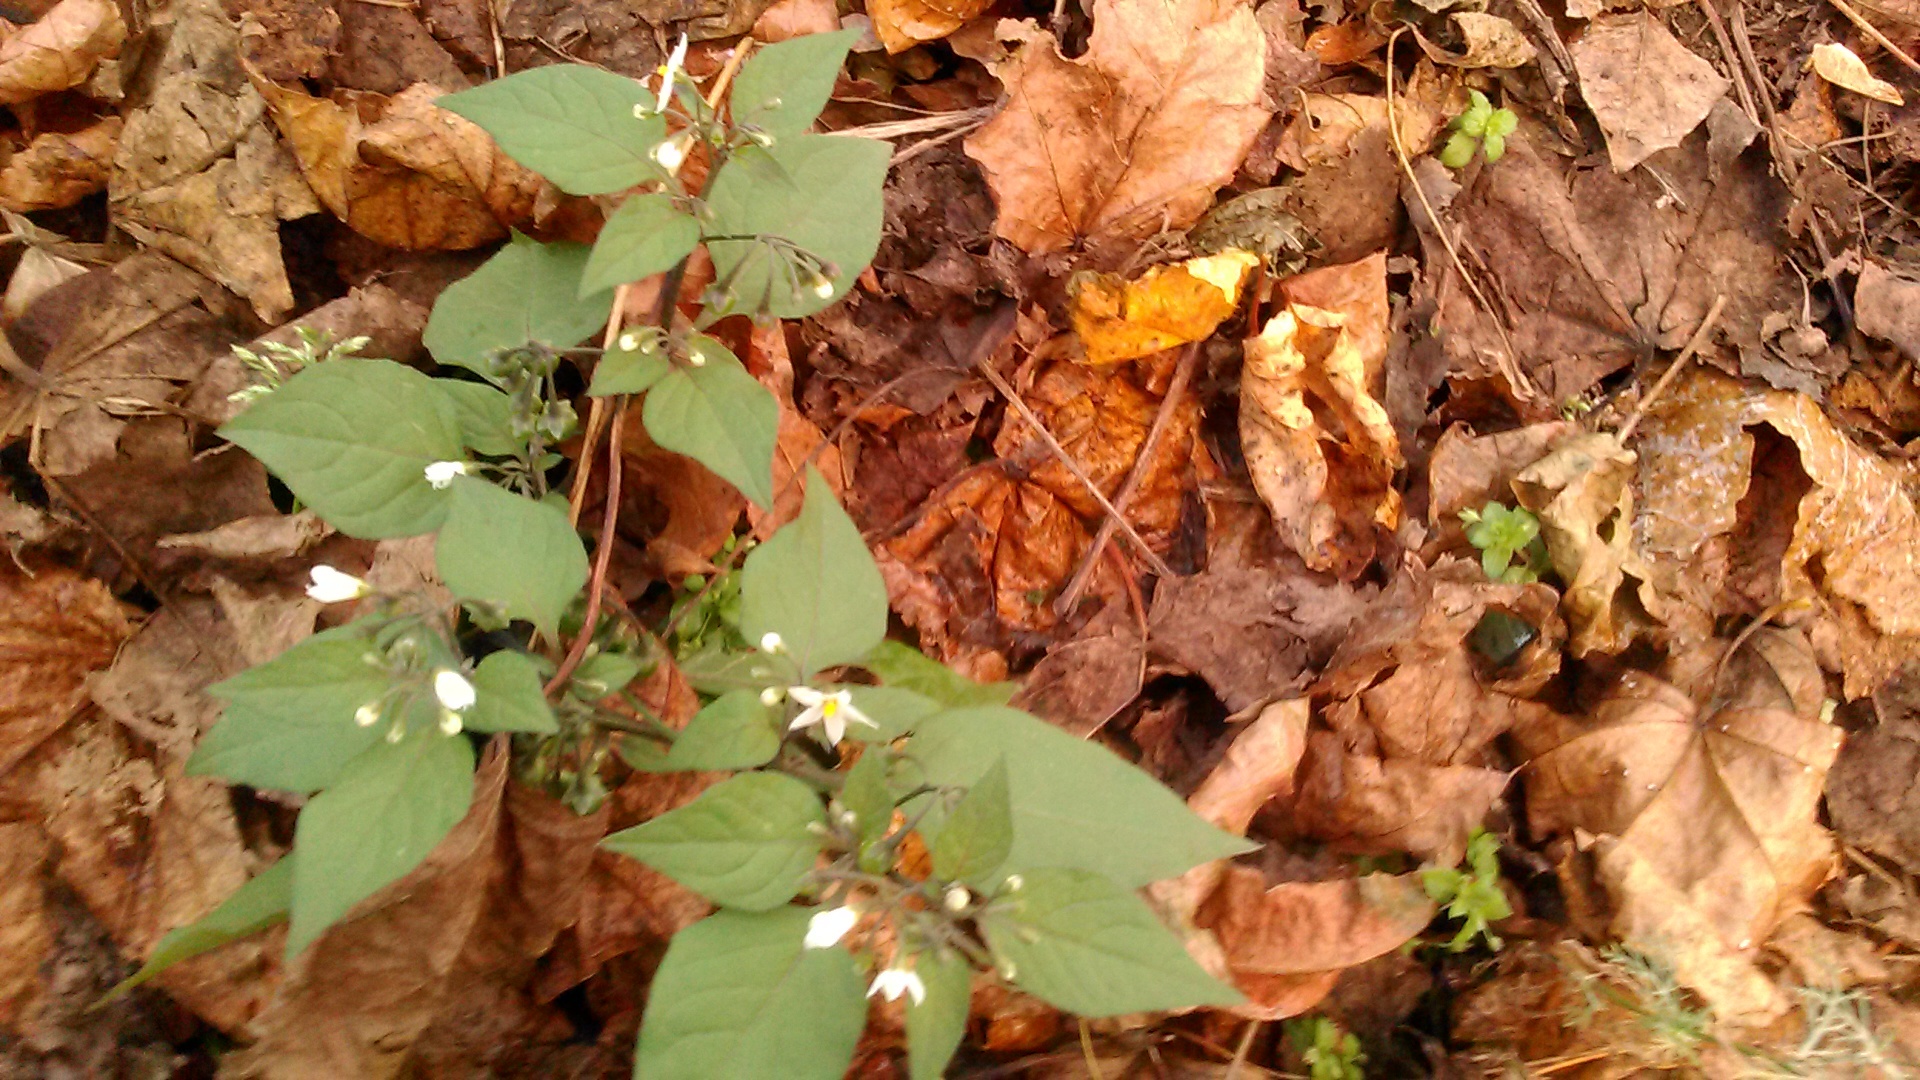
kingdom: Plantae
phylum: Tracheophyta
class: Magnoliopsida
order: Solanales
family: Solanaceae
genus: Solanum
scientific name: Solanum nigrum
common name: Black nightshade
